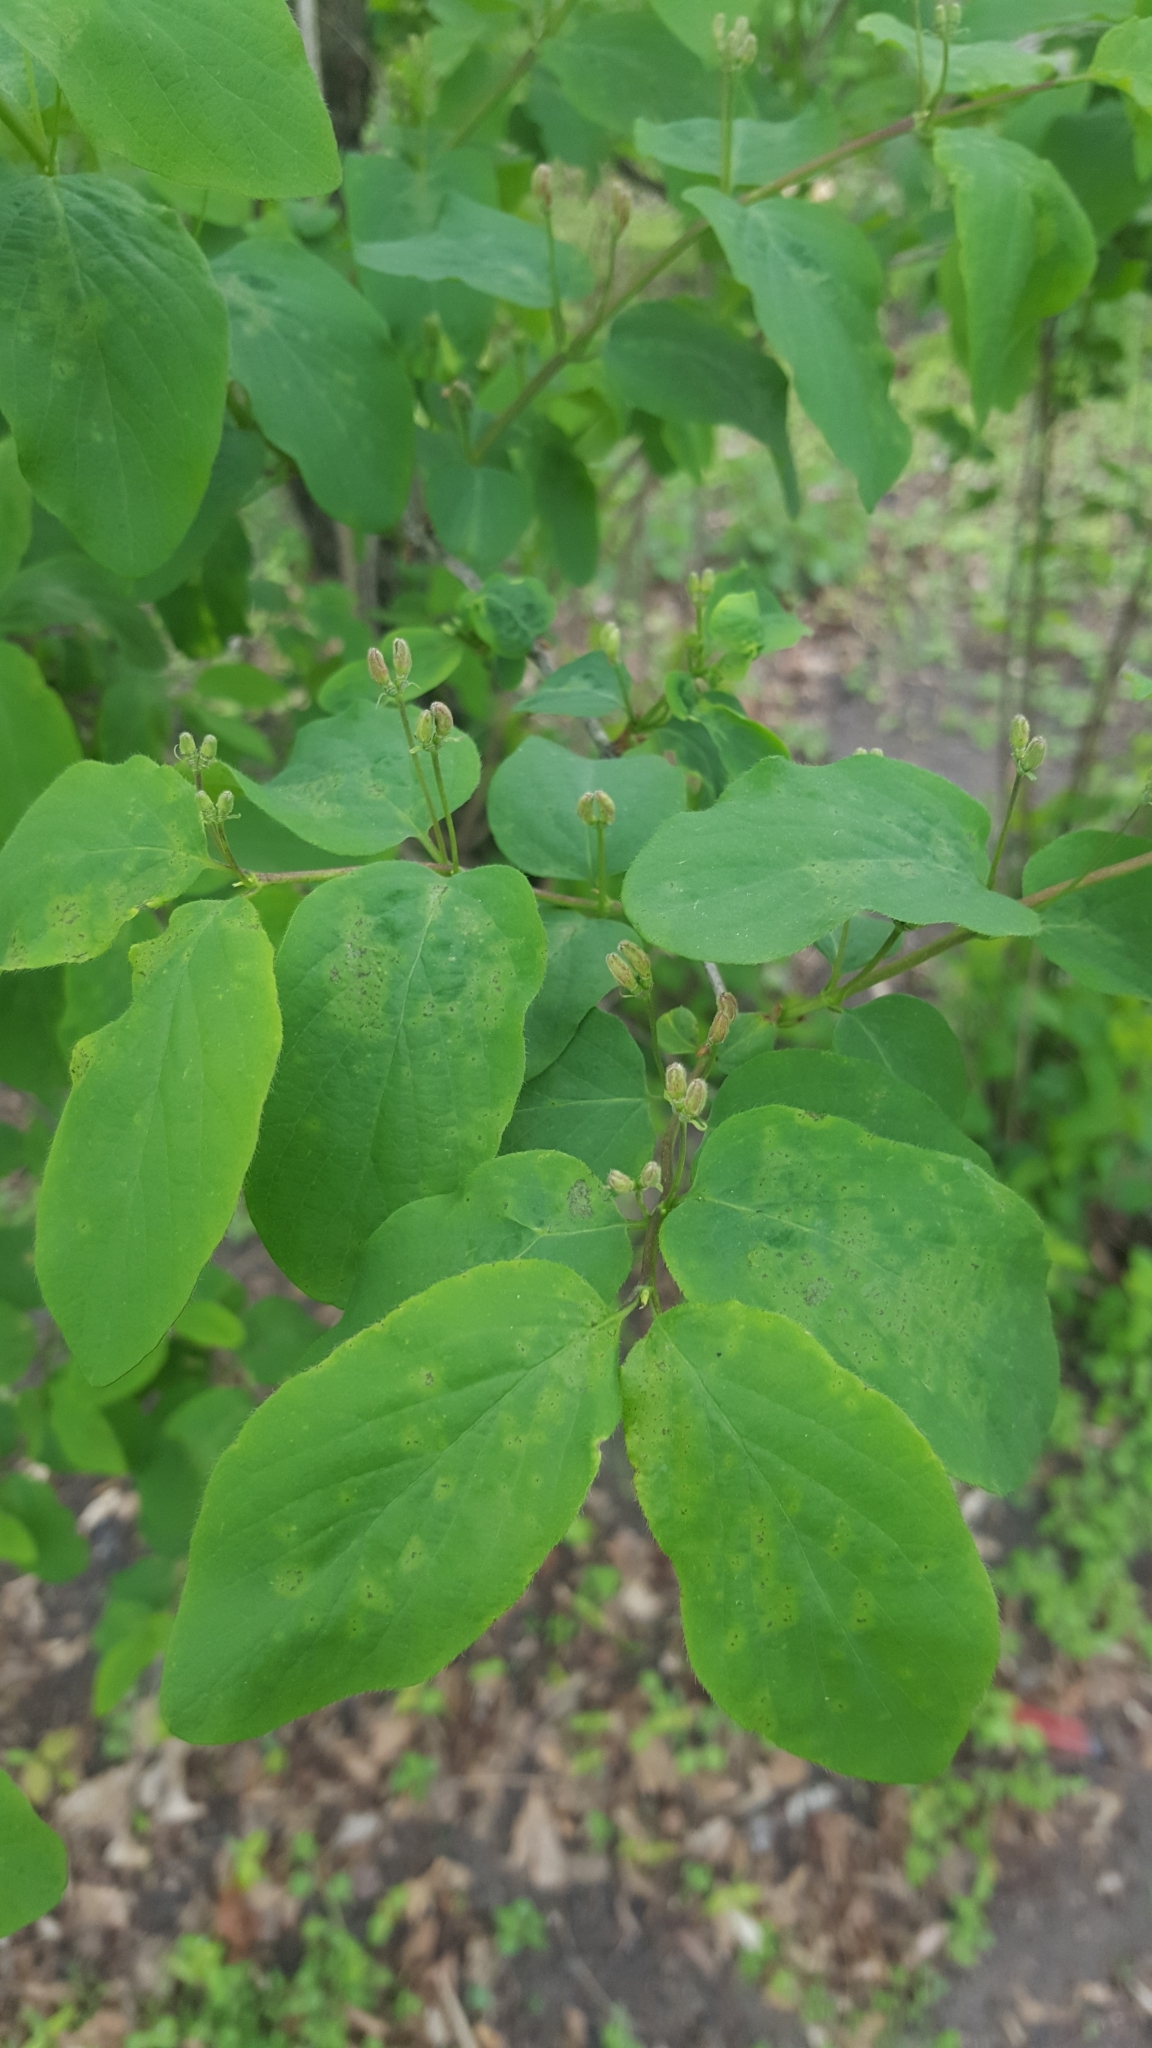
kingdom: Plantae
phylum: Tracheophyta
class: Magnoliopsida
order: Dipsacales
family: Caprifoliaceae
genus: Lonicera
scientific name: Lonicera xylosteum
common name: Fly honeysuckle
